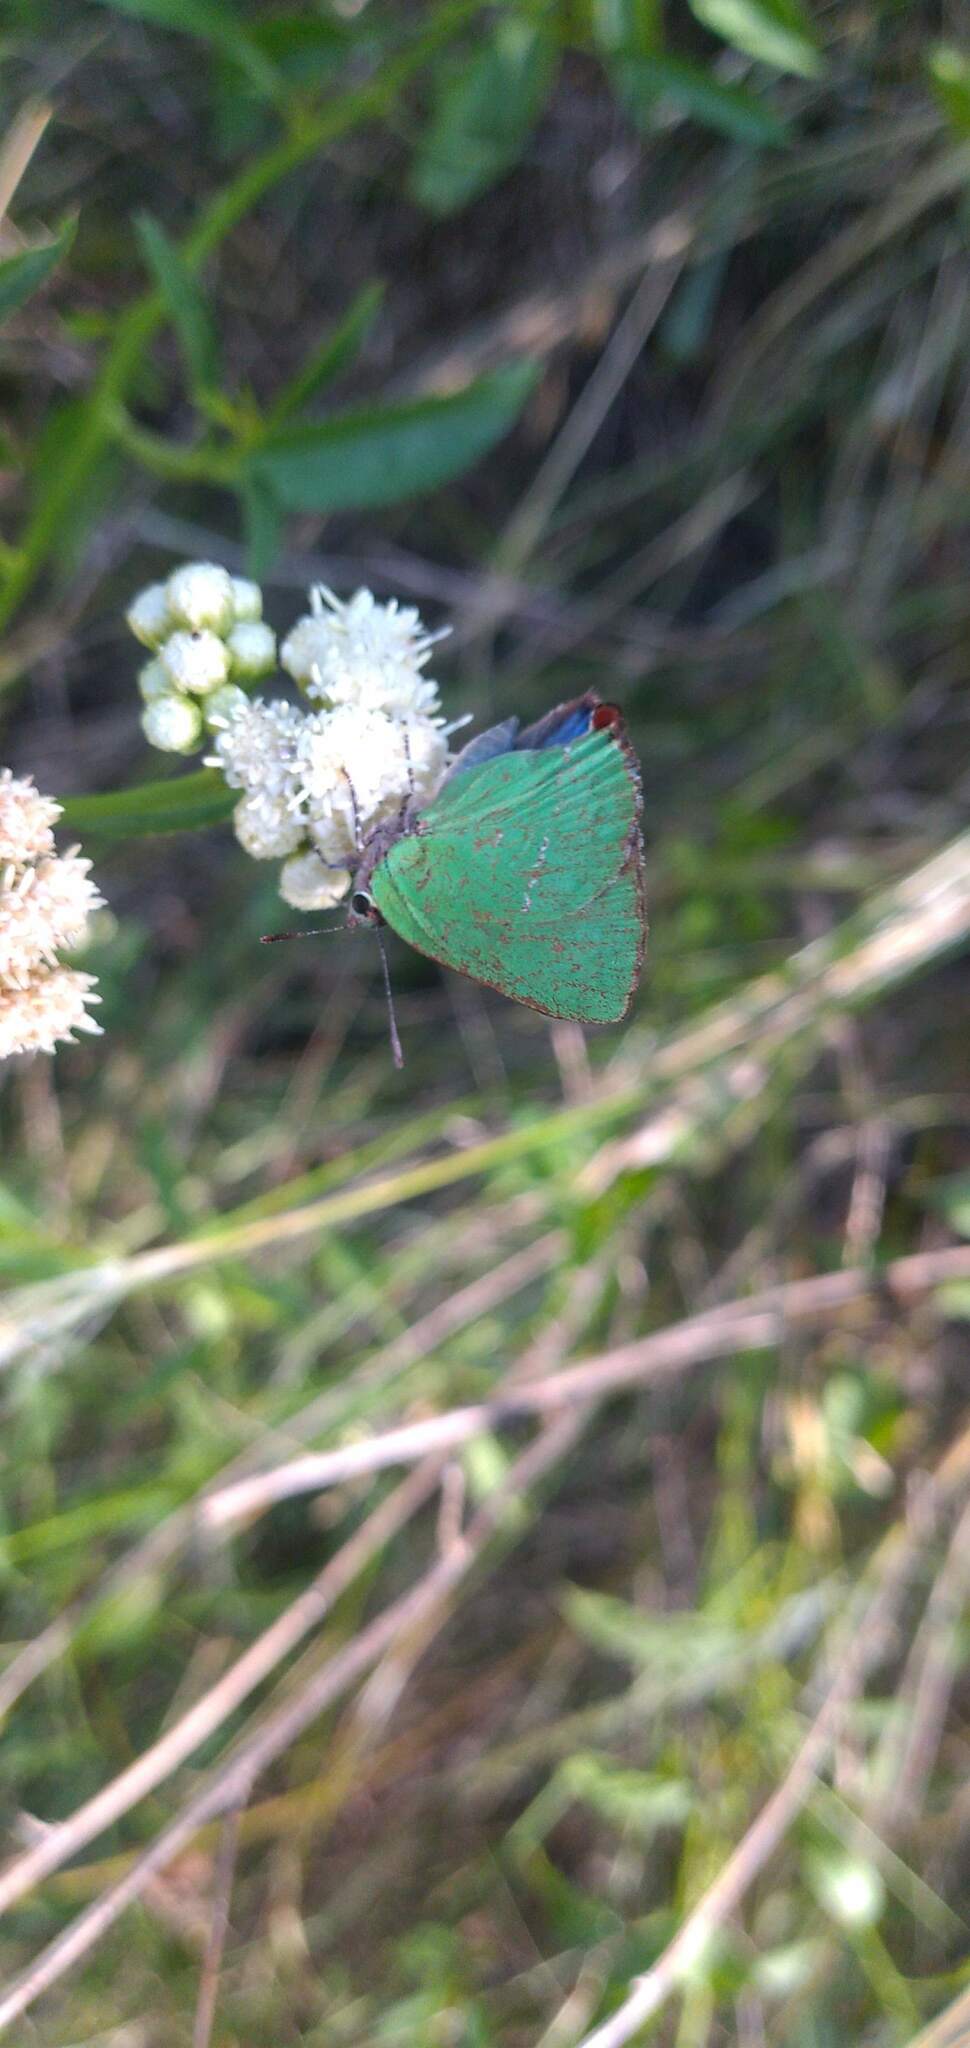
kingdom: Animalia
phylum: Arthropoda
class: Insecta
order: Lepidoptera
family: Lycaenidae
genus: Cyanophrys
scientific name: Cyanophrys
